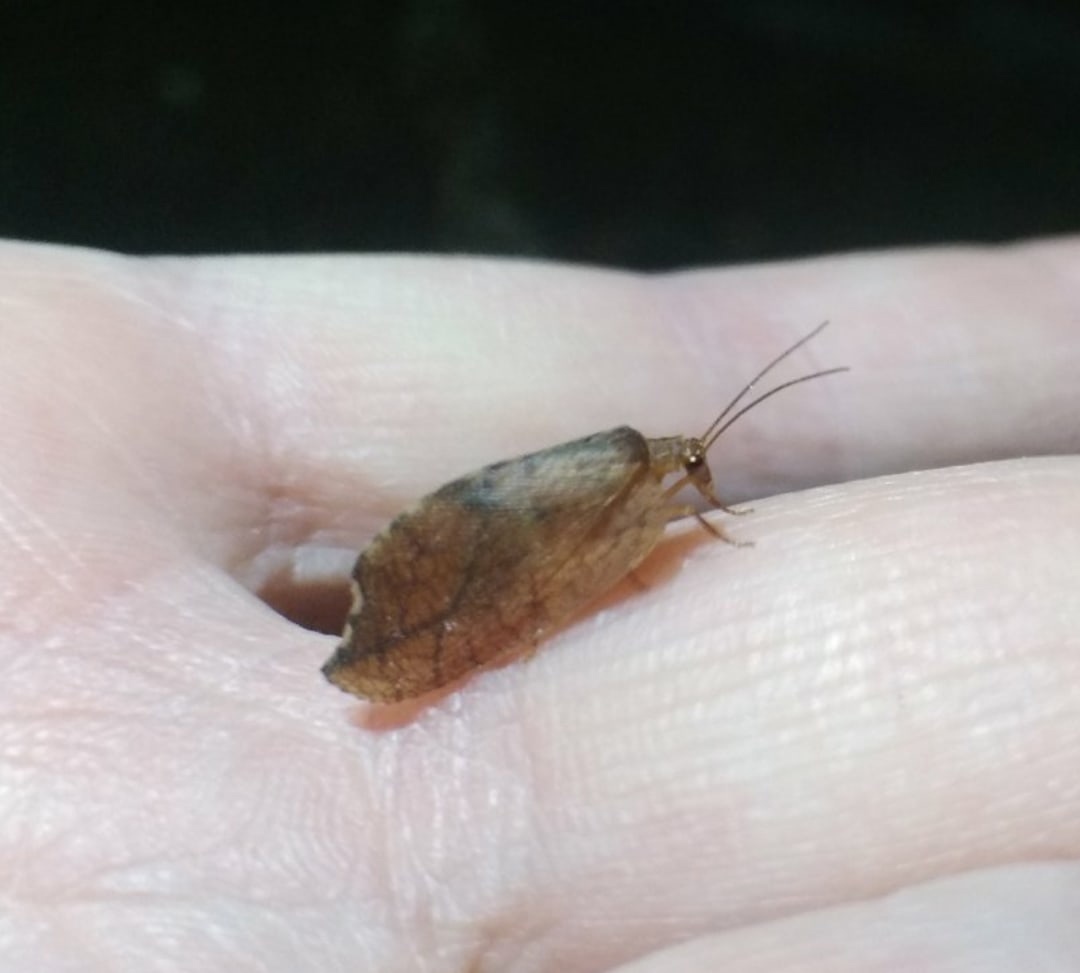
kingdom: Animalia
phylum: Arthropoda
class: Insecta
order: Neuroptera
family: Hemerobiidae
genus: Drepanepteryx
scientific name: Drepanepteryx phalaenoides
